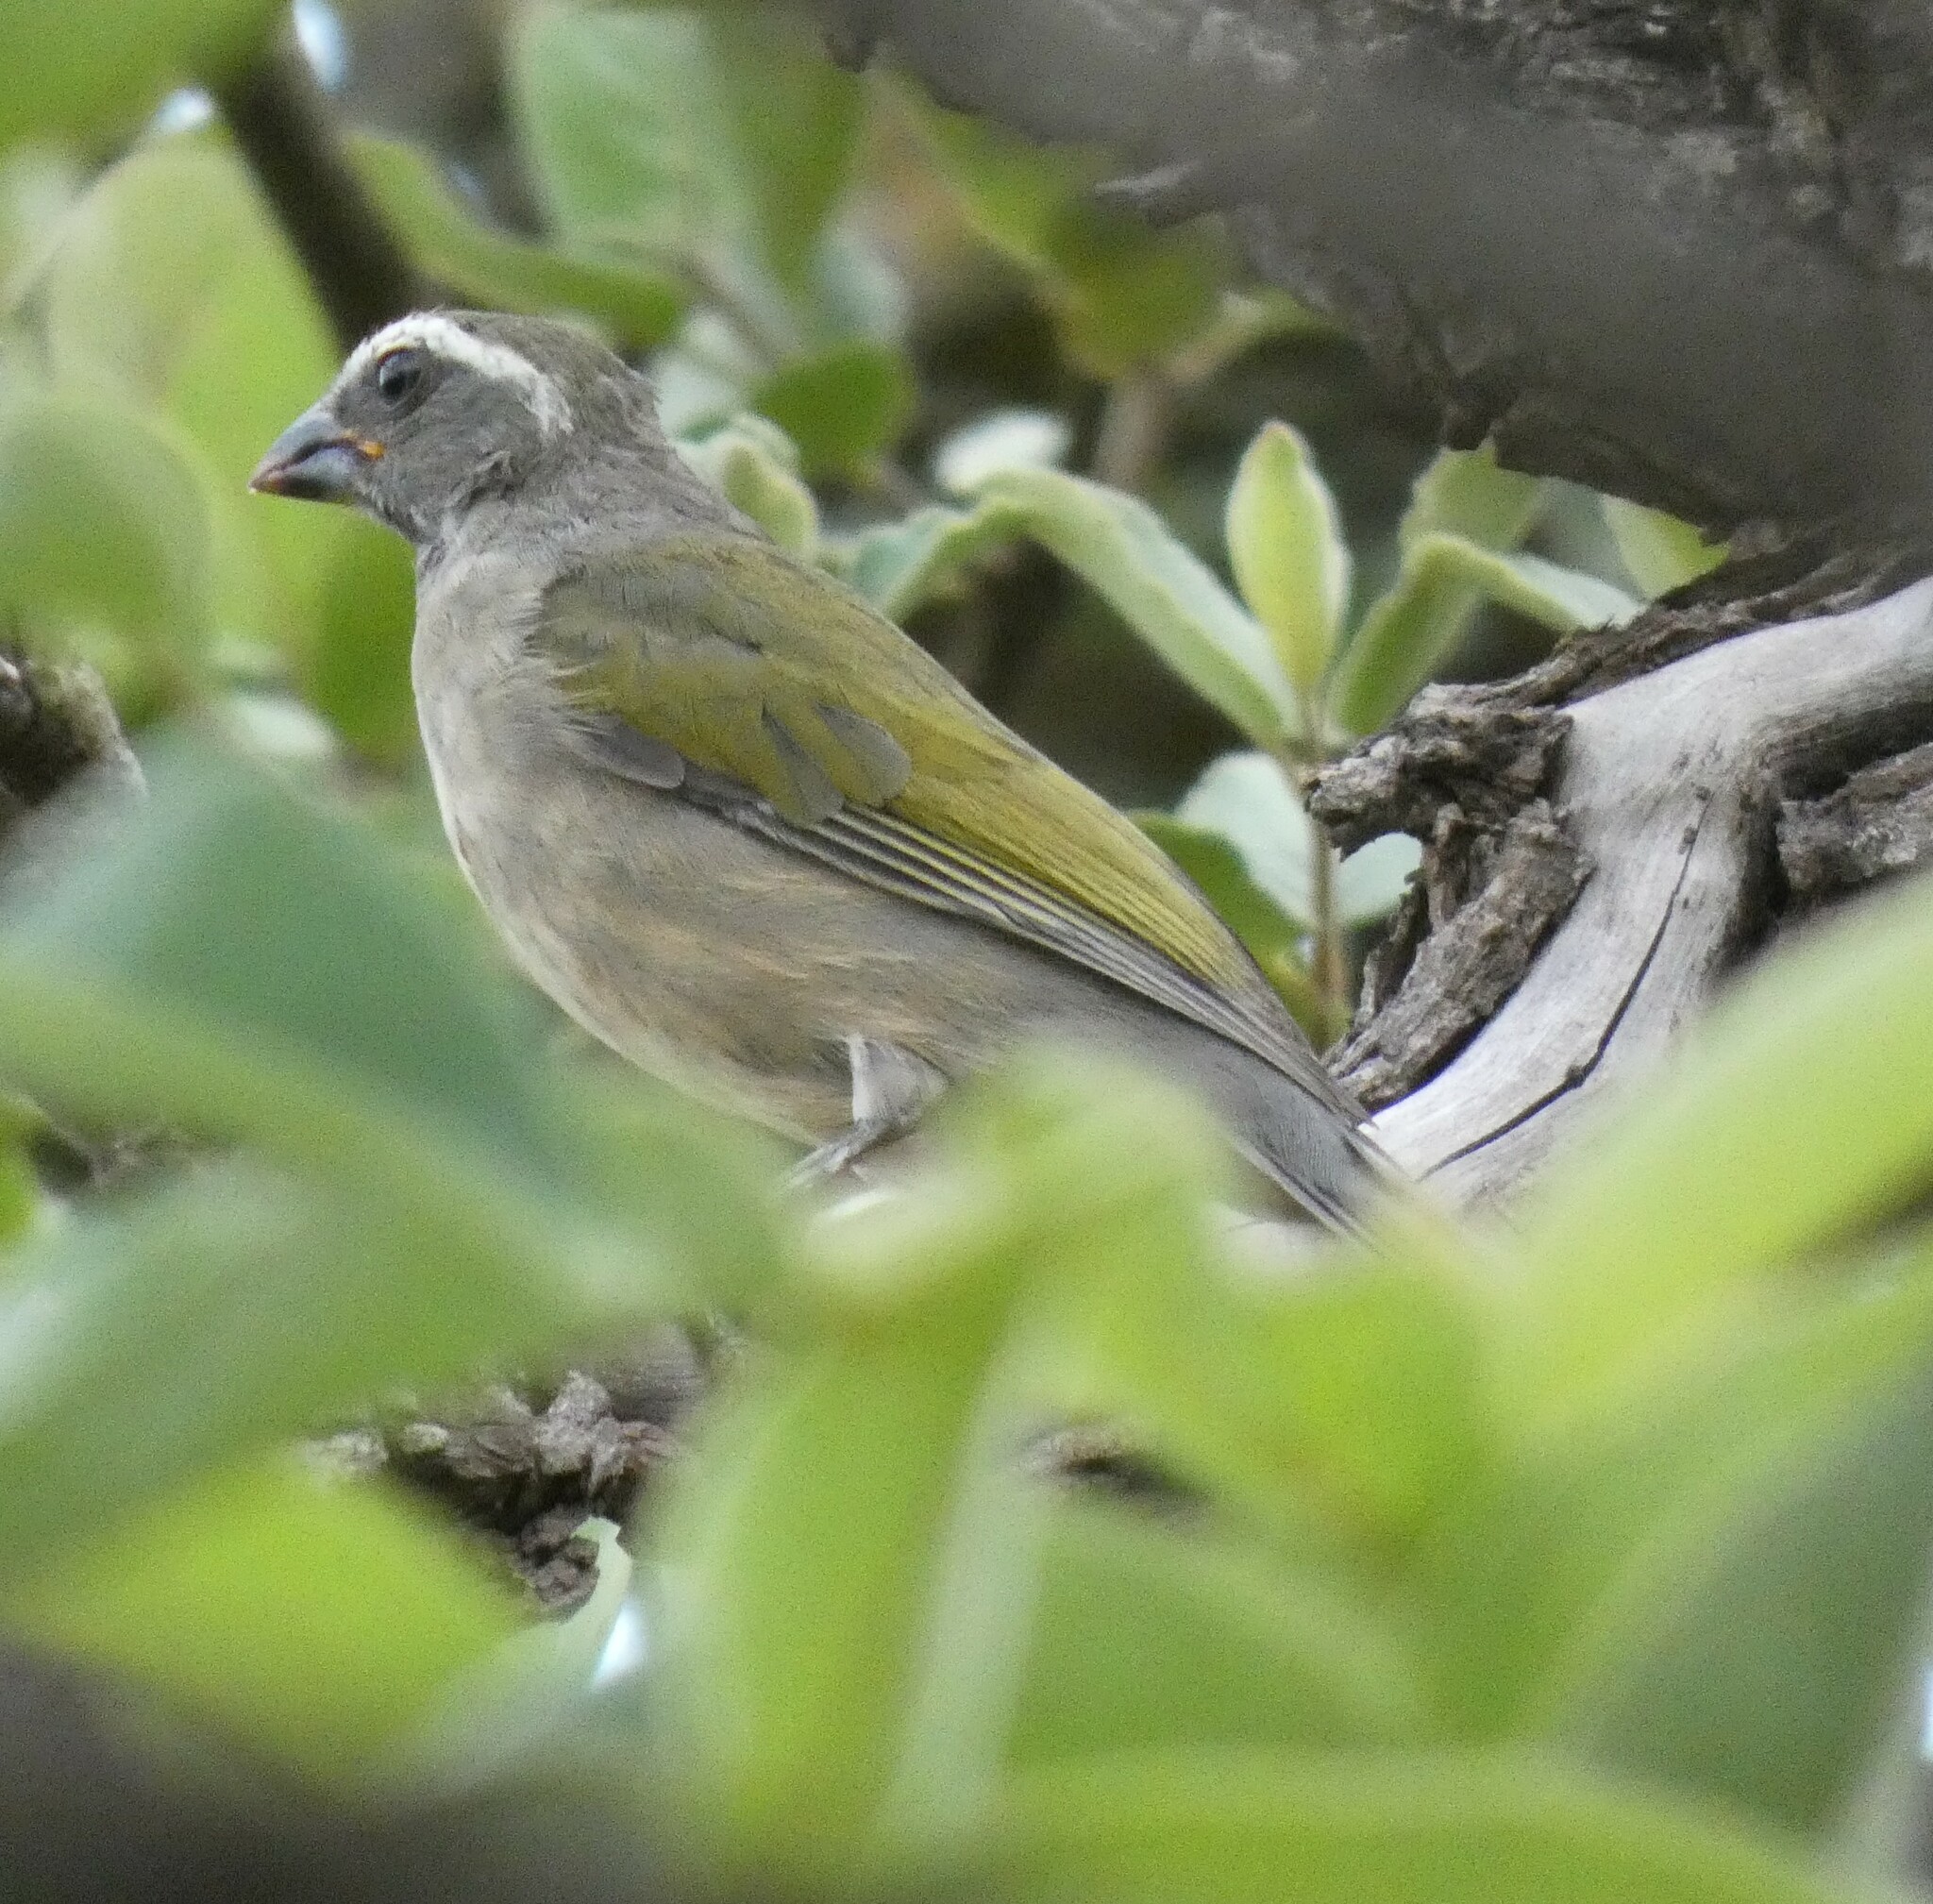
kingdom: Animalia
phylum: Chordata
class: Aves
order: Passeriformes
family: Thraupidae
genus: Saltator
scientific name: Saltator similis
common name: Green-winged saltator
